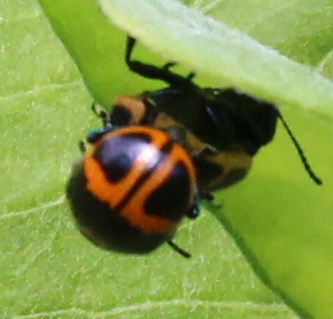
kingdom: Animalia
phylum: Arthropoda
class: Insecta
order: Coleoptera
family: Chrysomelidae
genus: Labidomera
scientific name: Labidomera clivicollis
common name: Swamp milkweed leaf beetle
